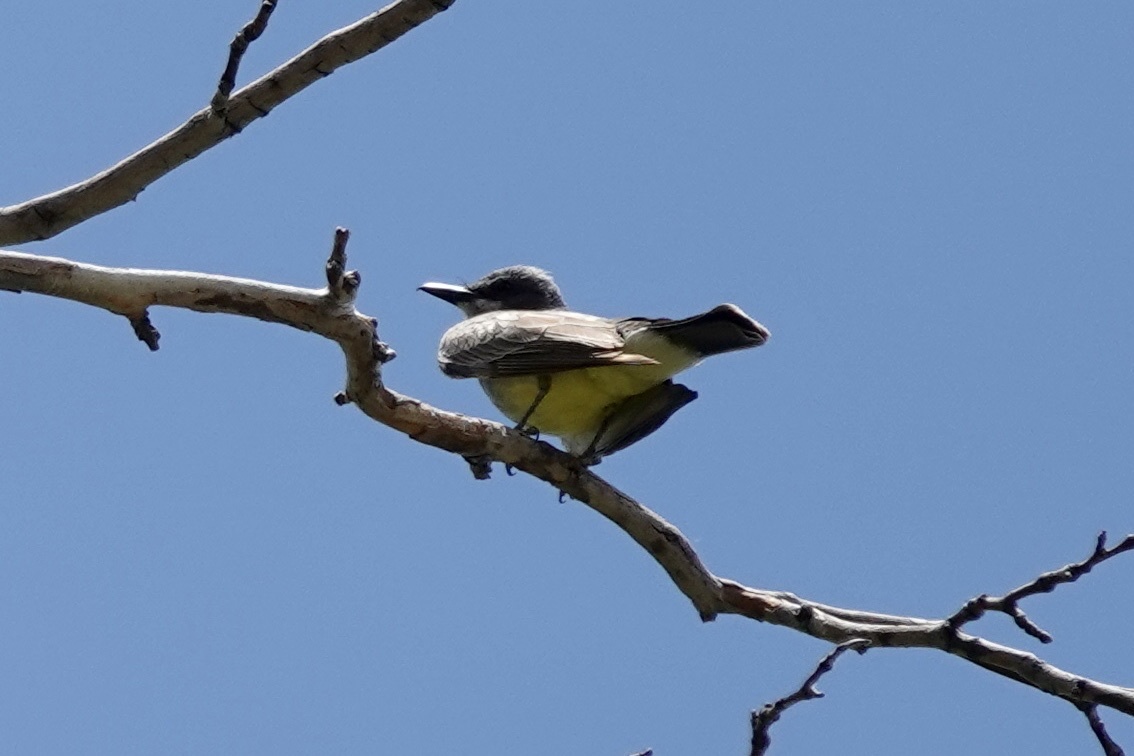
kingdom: Animalia
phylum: Chordata
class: Aves
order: Passeriformes
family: Tyrannidae
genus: Tyrannus
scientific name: Tyrannus vociferans
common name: Cassin's kingbird
